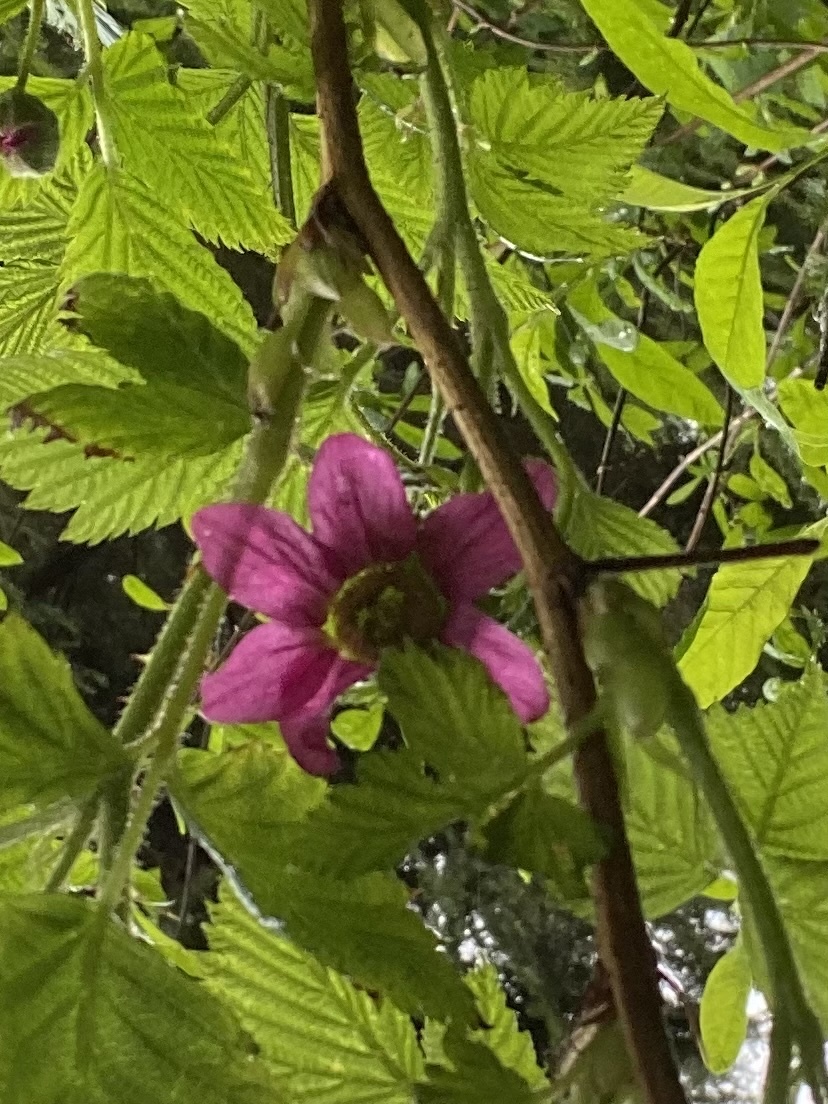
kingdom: Plantae
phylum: Tracheophyta
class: Magnoliopsida
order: Rosales
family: Rosaceae
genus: Rubus
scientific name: Rubus spectabilis
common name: Salmonberry
